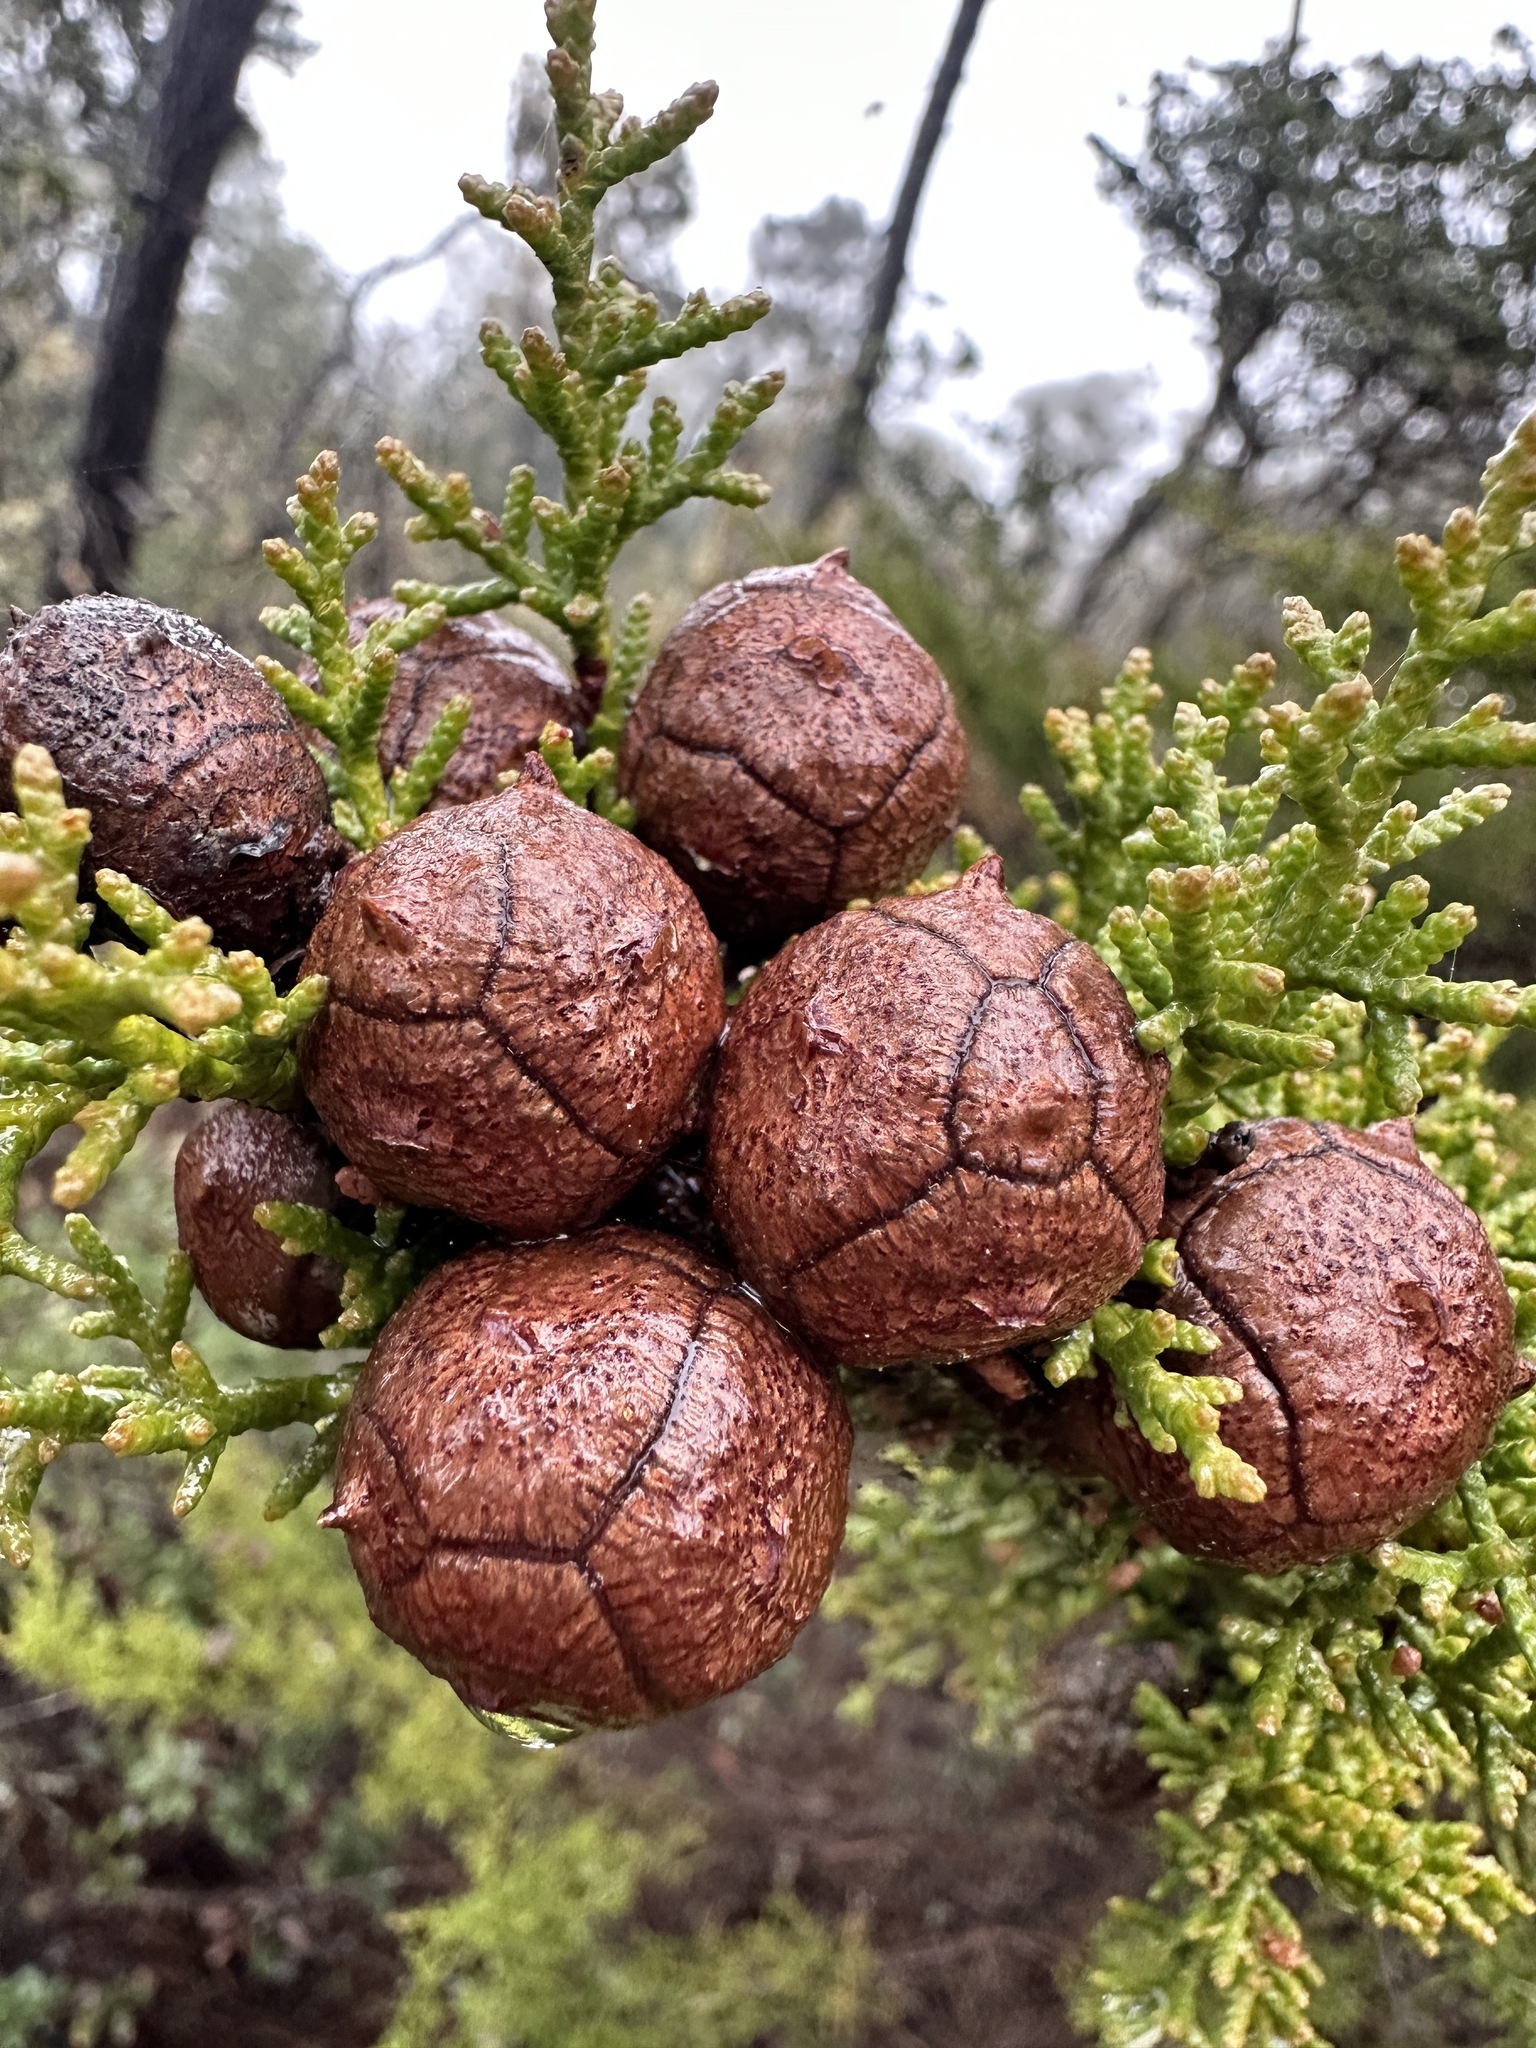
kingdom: Plantae
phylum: Tracheophyta
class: Pinopsida
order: Pinales
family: Cupressaceae
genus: Cupressus
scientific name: Cupressus goveniana
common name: Gowen cypress
